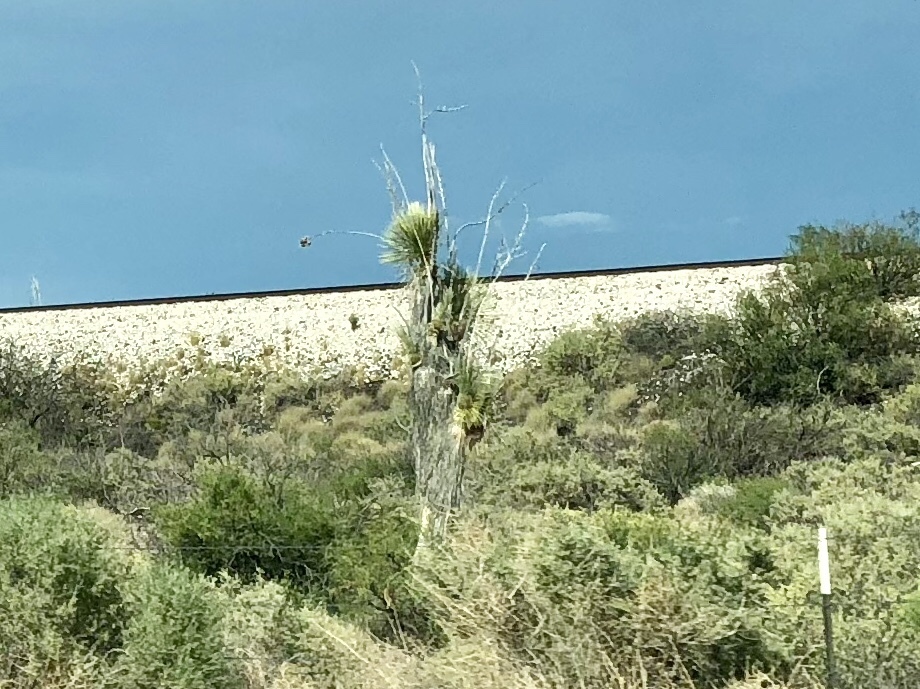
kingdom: Plantae
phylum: Tracheophyta
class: Liliopsida
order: Asparagales
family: Asparagaceae
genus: Yucca
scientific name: Yucca elata
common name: Palmella
